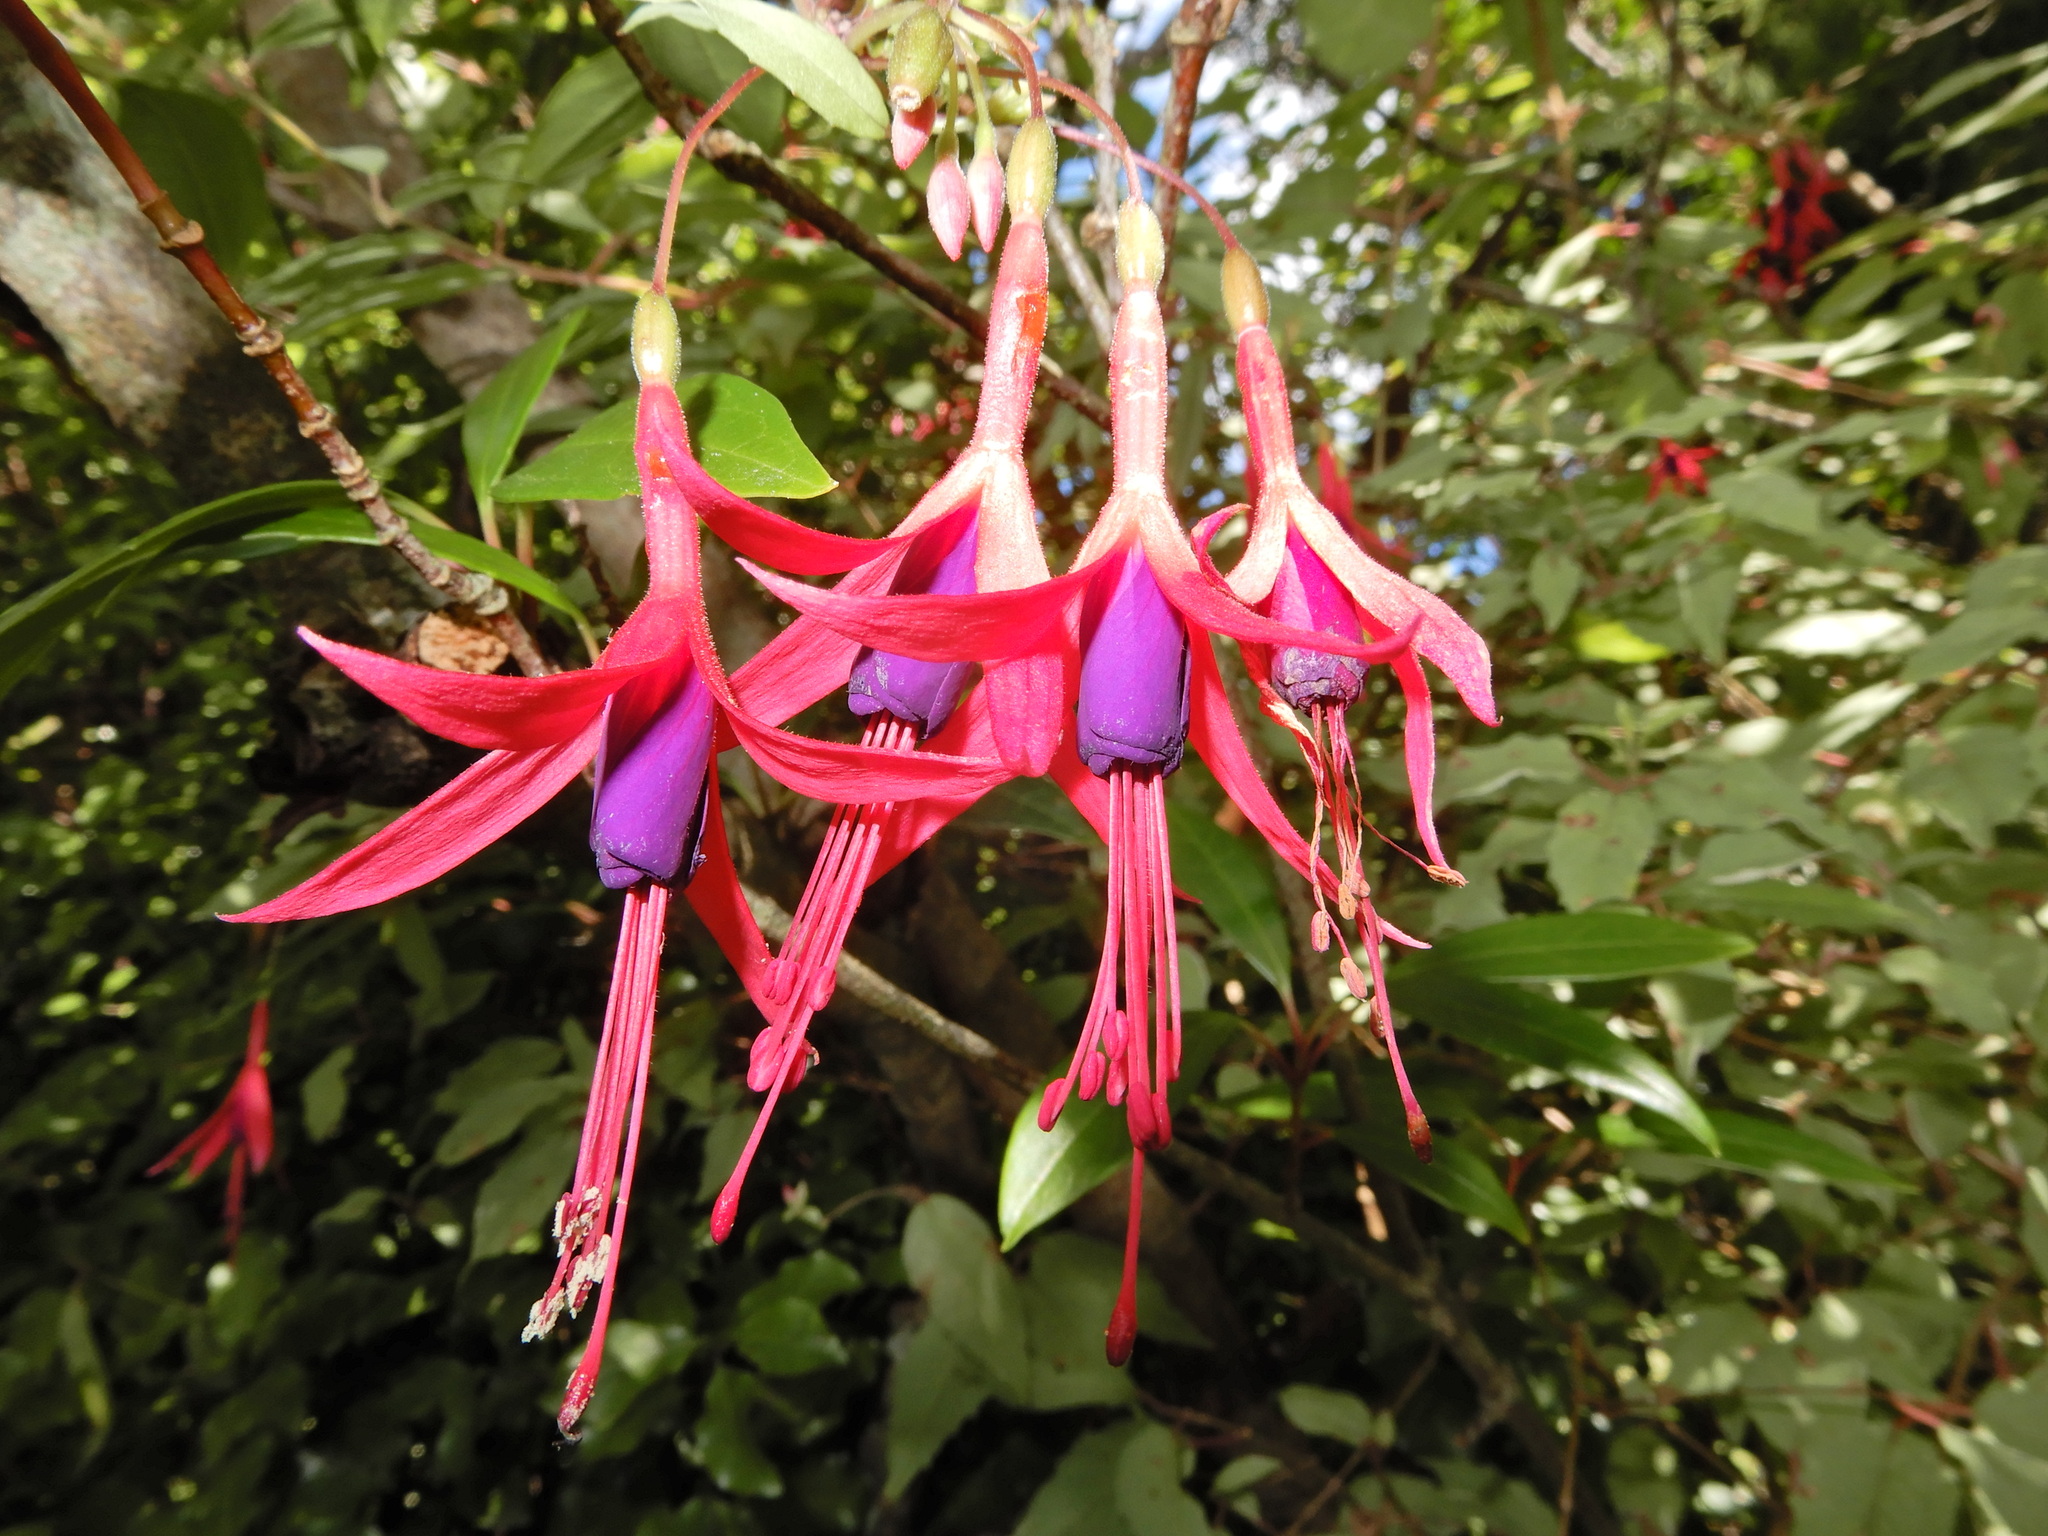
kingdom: Plantae
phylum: Tracheophyta
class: Magnoliopsida
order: Myrtales
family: Onagraceae
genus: Fuchsia
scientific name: Fuchsia magellanica
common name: Hardy fuchsia
